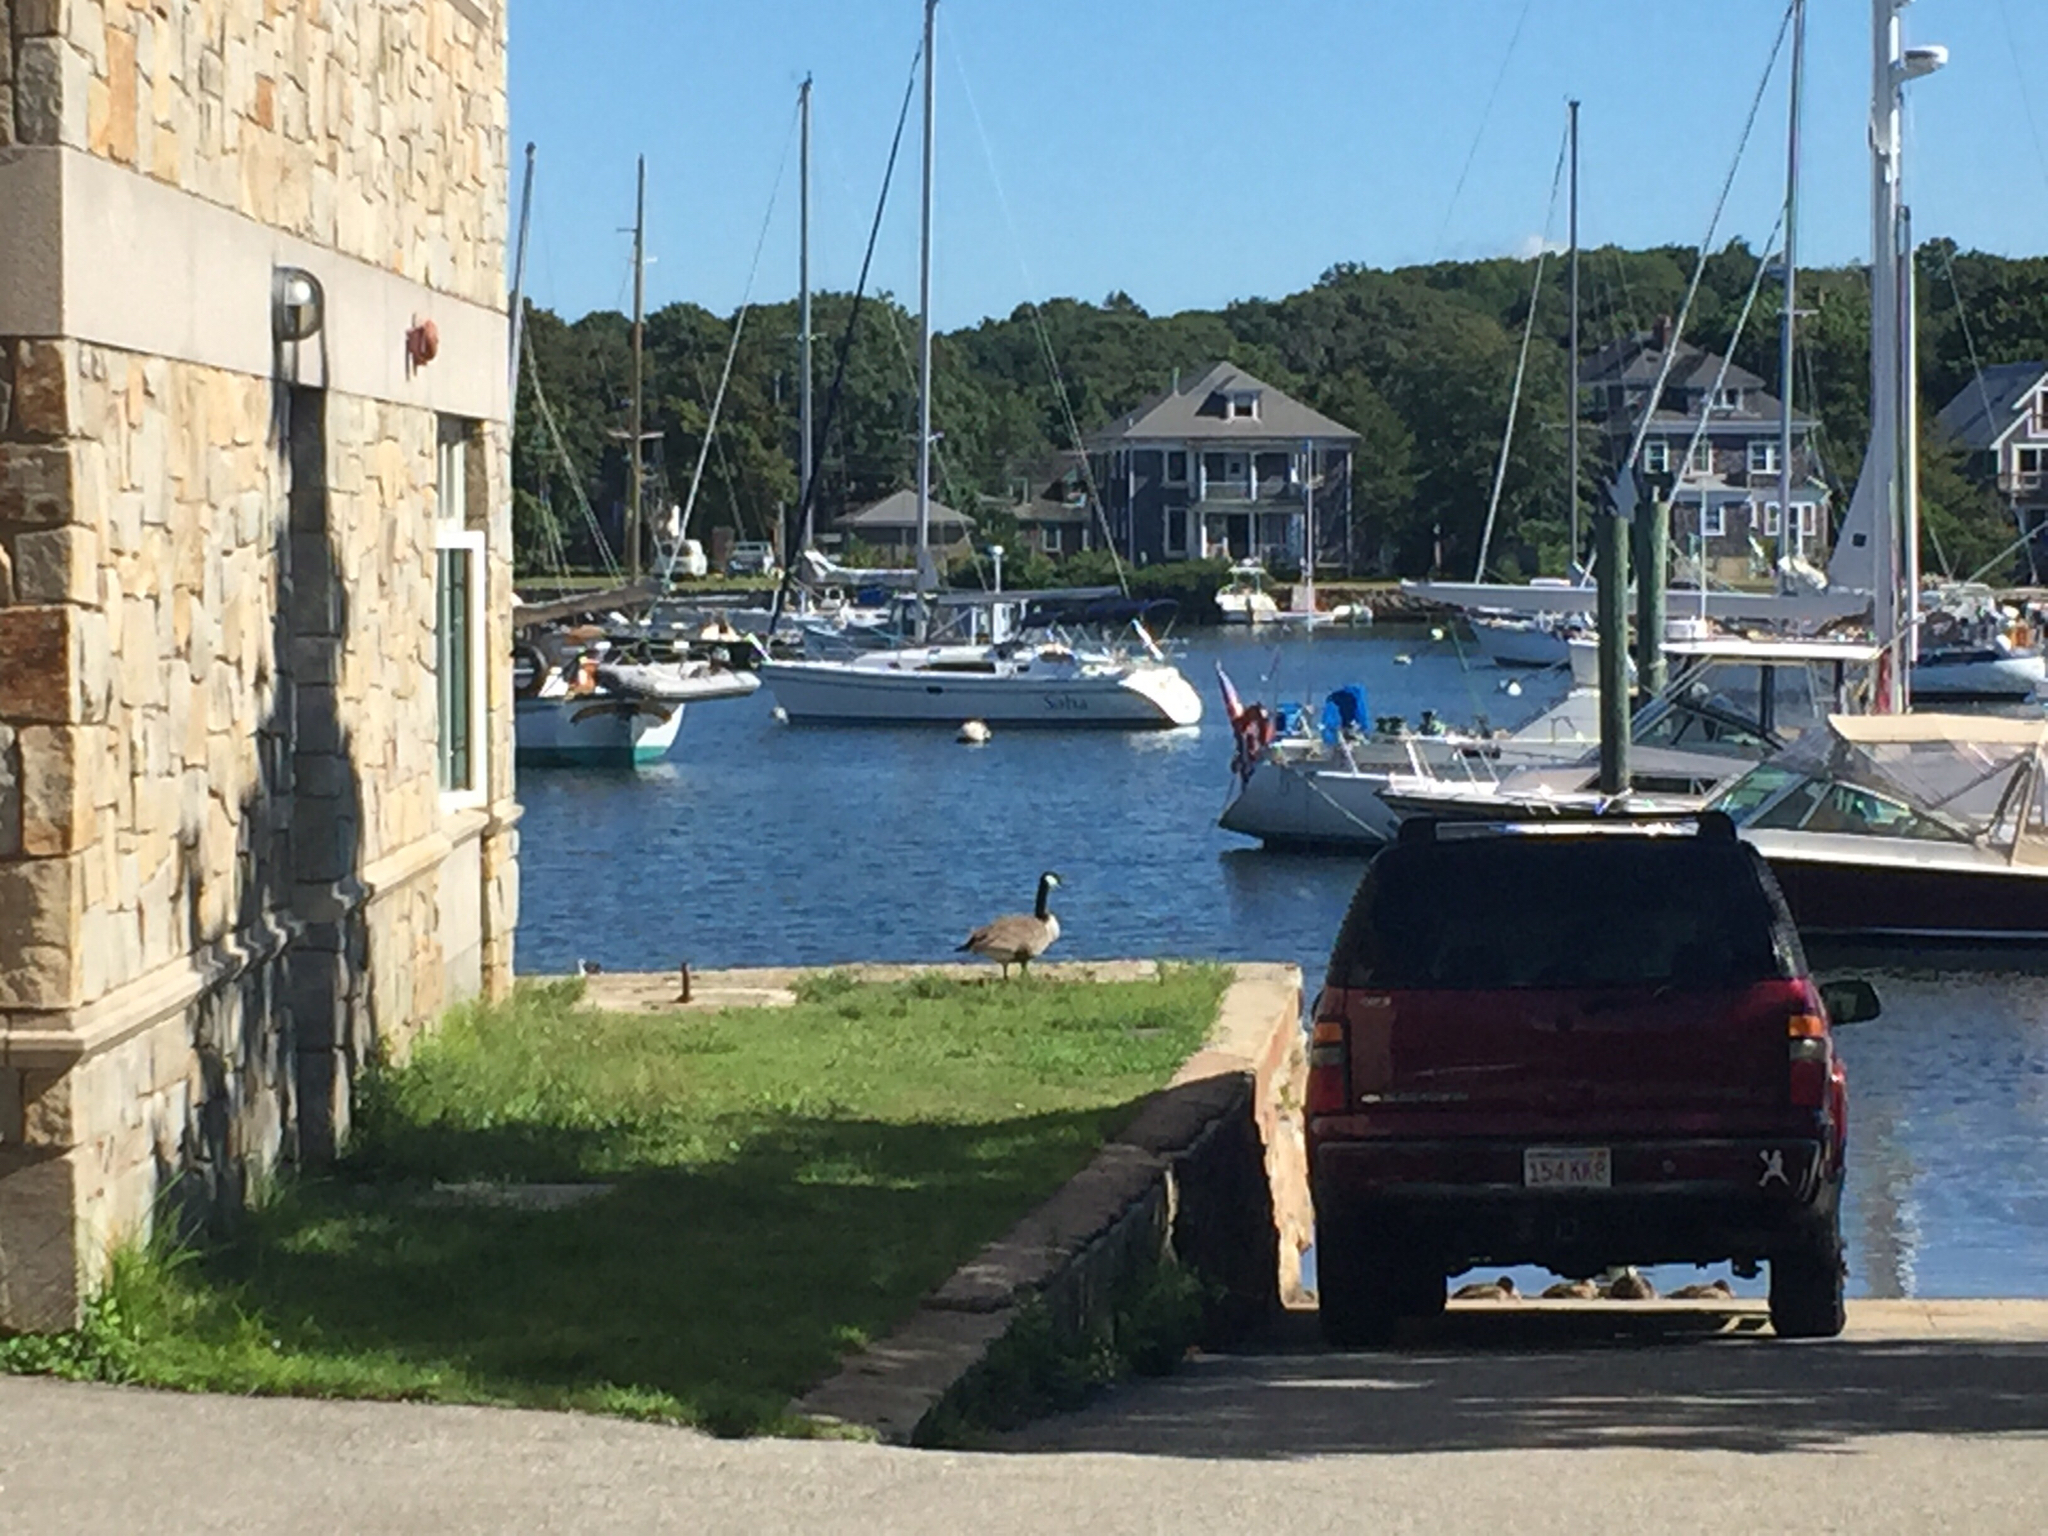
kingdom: Animalia
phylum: Chordata
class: Aves
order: Anseriformes
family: Anatidae
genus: Branta
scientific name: Branta canadensis
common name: Canada goose
